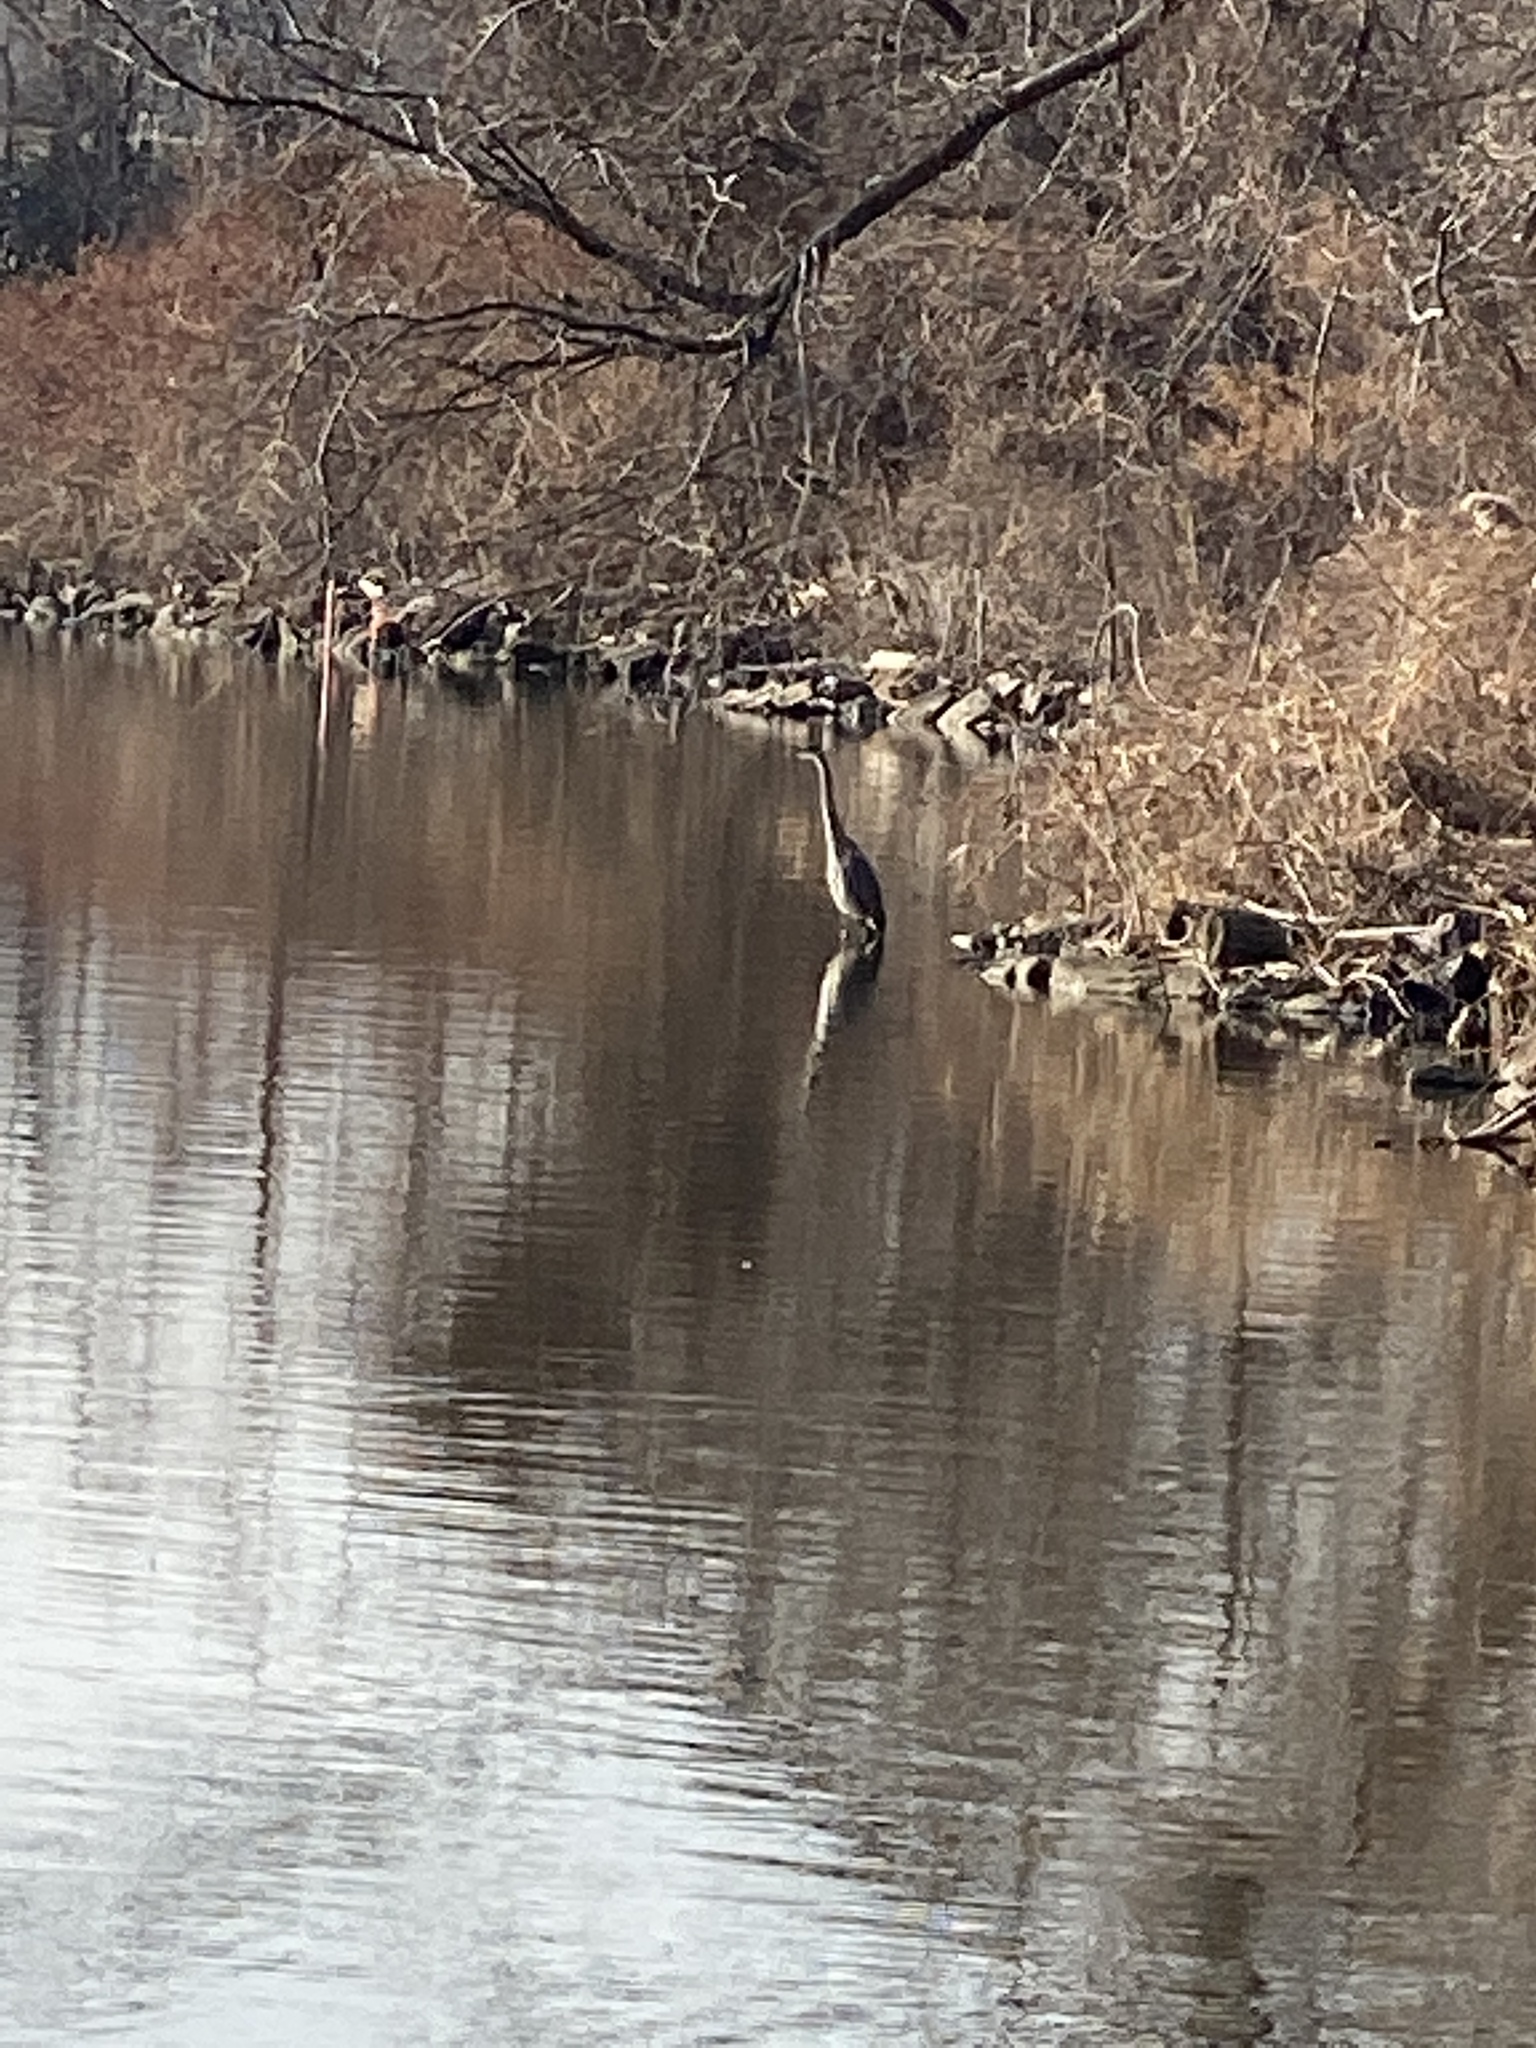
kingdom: Animalia
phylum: Chordata
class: Aves
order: Pelecaniformes
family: Ardeidae
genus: Ardea
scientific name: Ardea herodias
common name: Great blue heron
